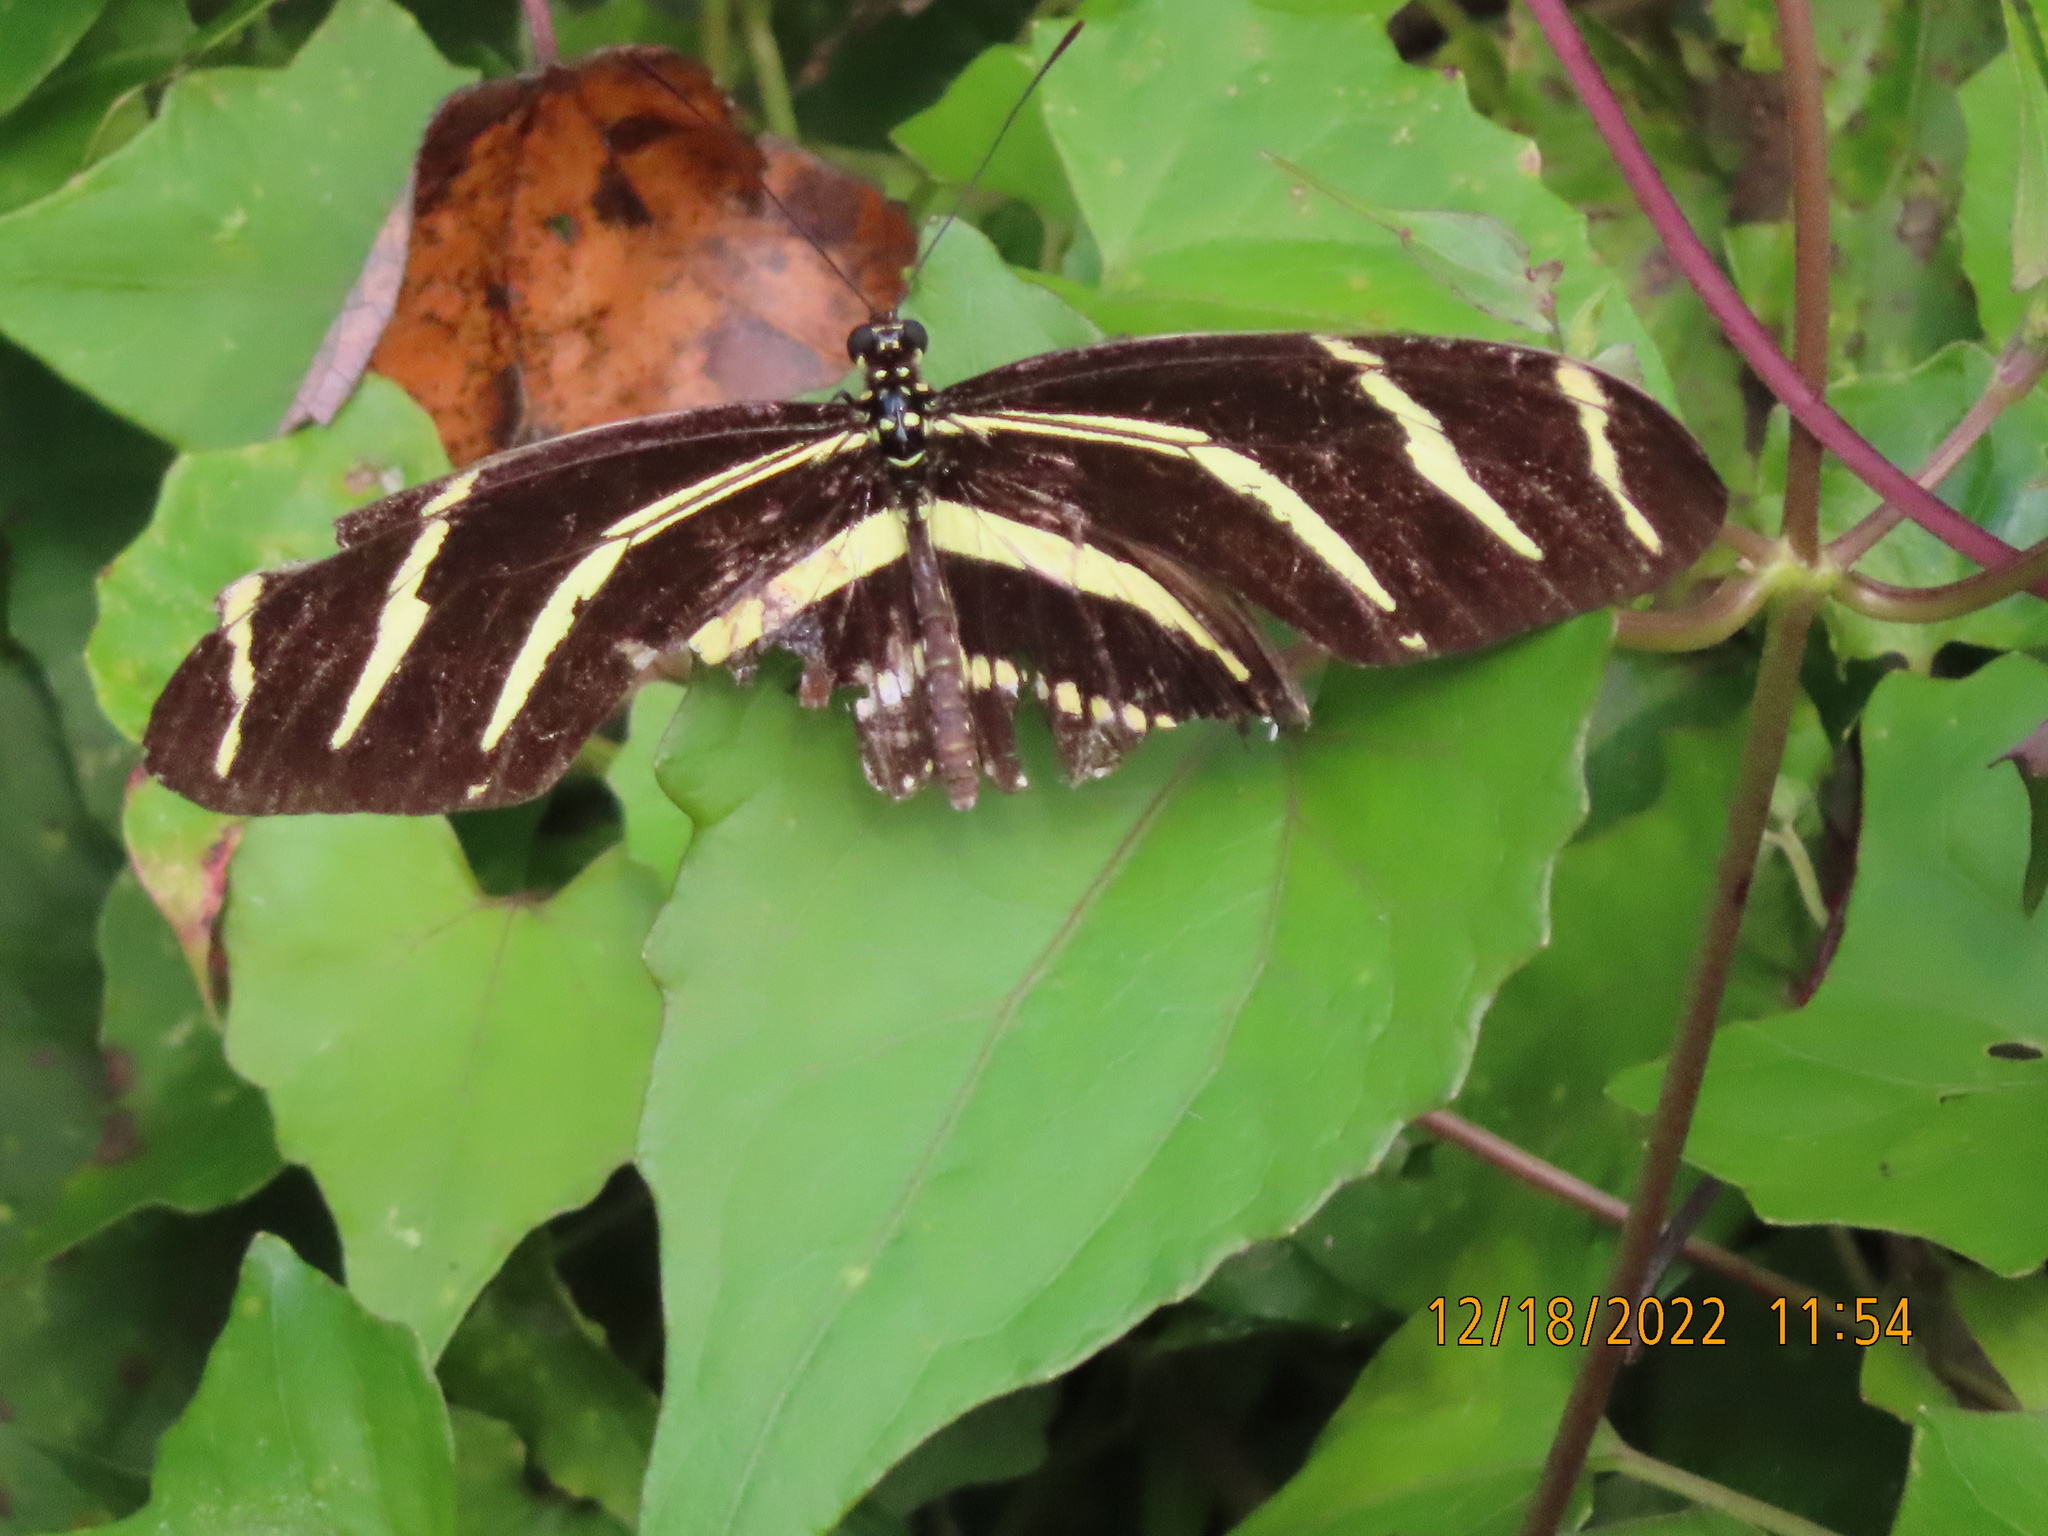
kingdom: Animalia
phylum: Arthropoda
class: Insecta
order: Lepidoptera
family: Nymphalidae
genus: Heliconius
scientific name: Heliconius charithonia
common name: Zebra long wing
